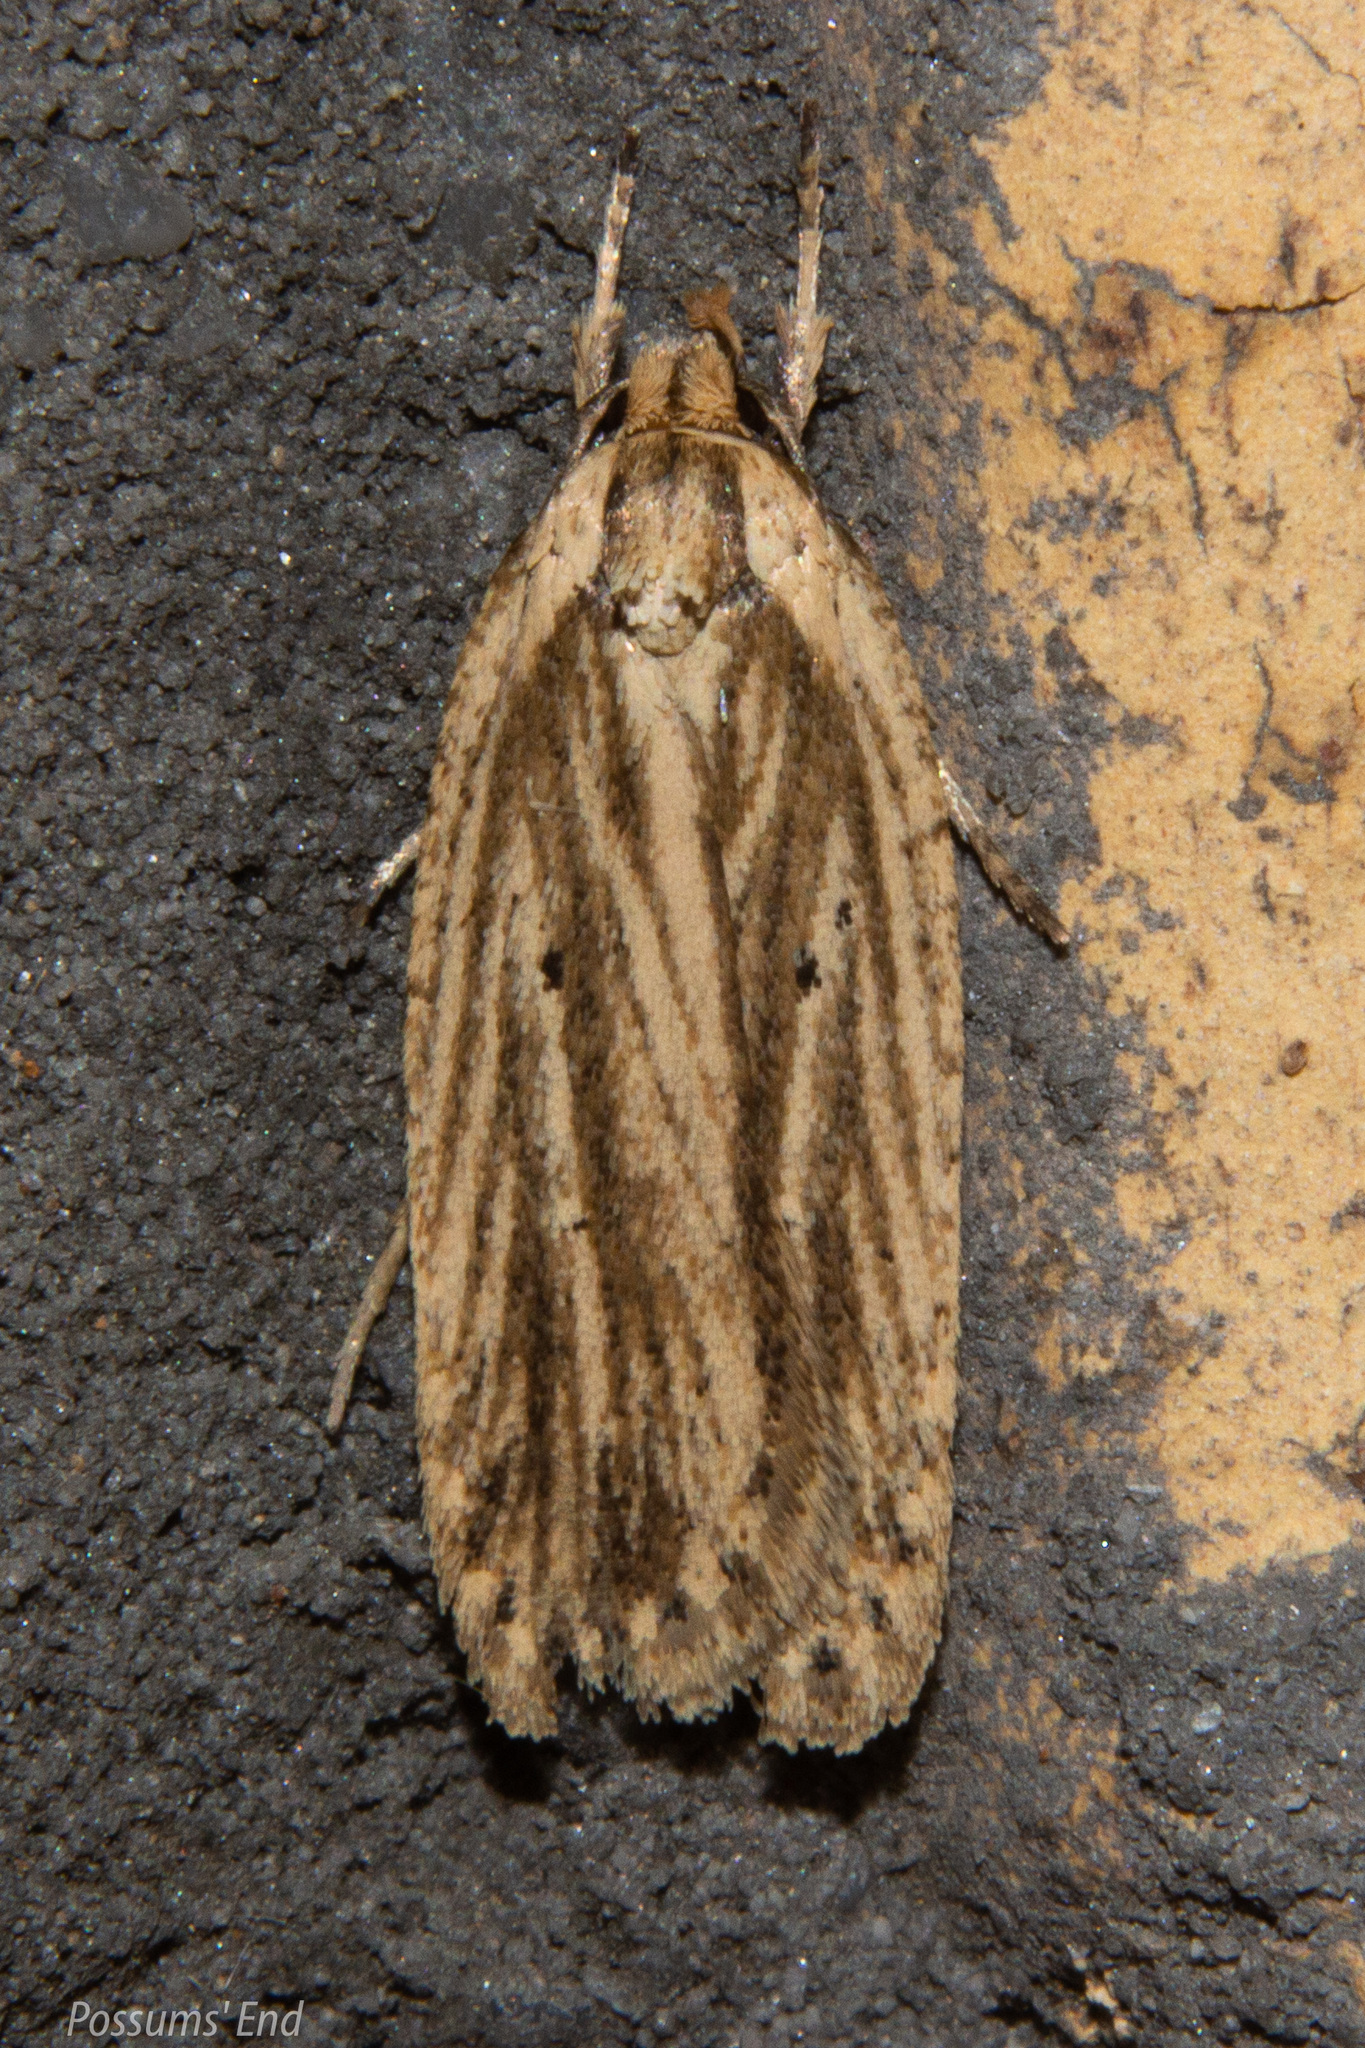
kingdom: Animalia
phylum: Arthropoda
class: Insecta
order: Lepidoptera
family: Depressariidae
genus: Agonopterix
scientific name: Agonopterix
